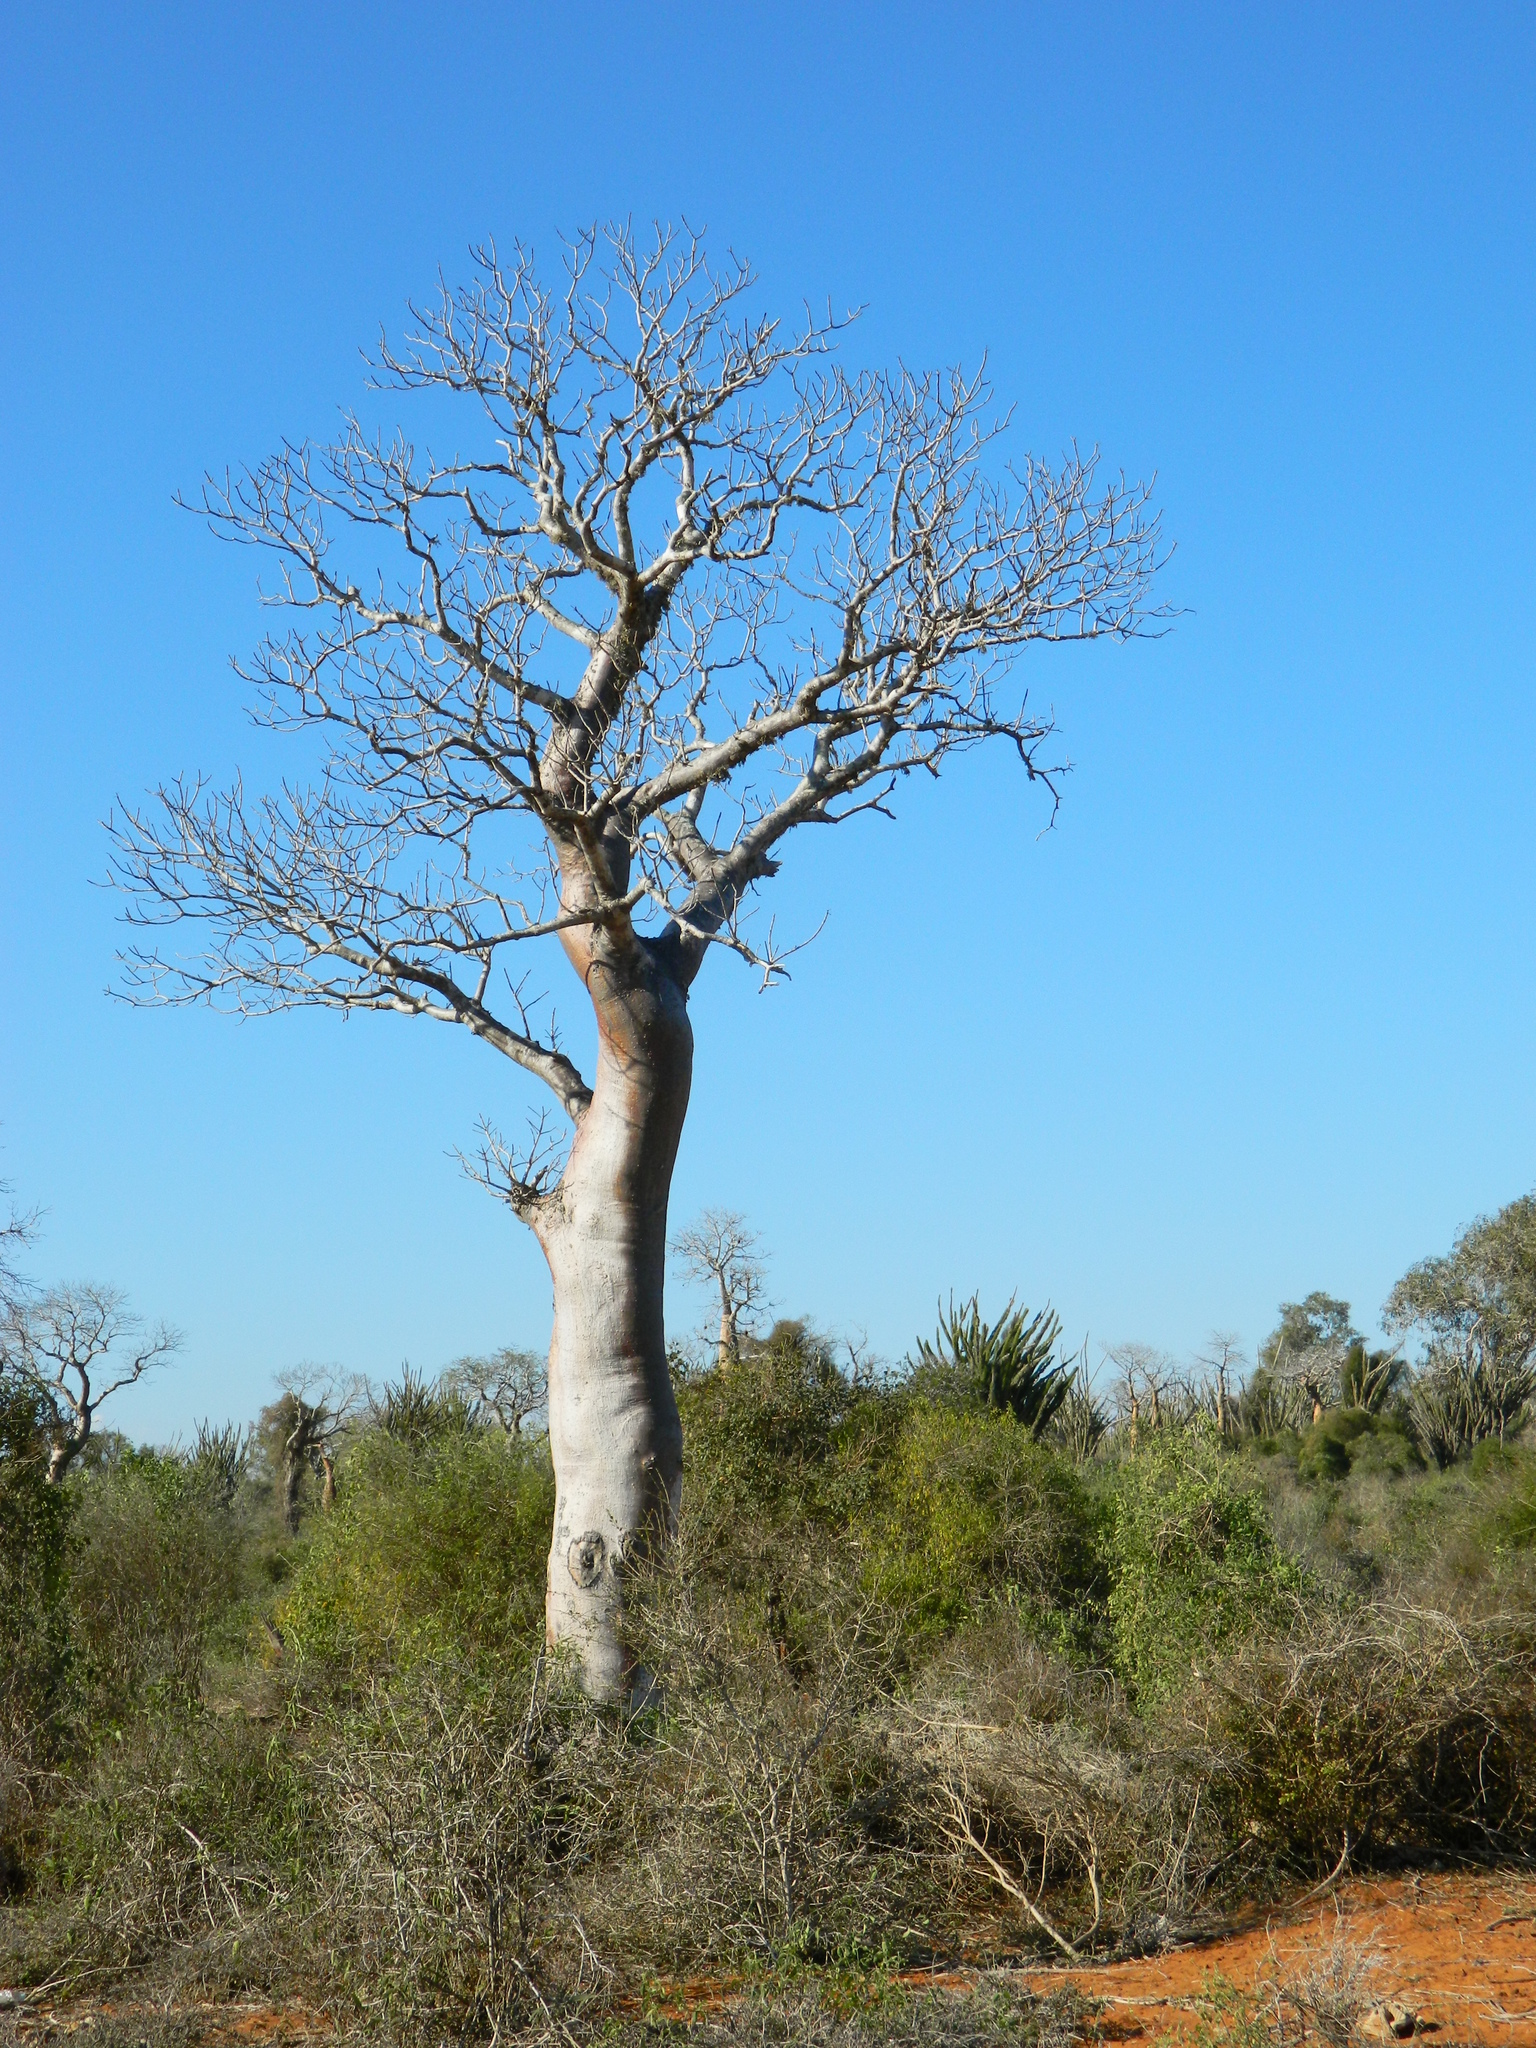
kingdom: Plantae
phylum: Tracheophyta
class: Magnoliopsida
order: Malpighiales
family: Euphorbiaceae
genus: Givotia
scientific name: Givotia madagascariensis
